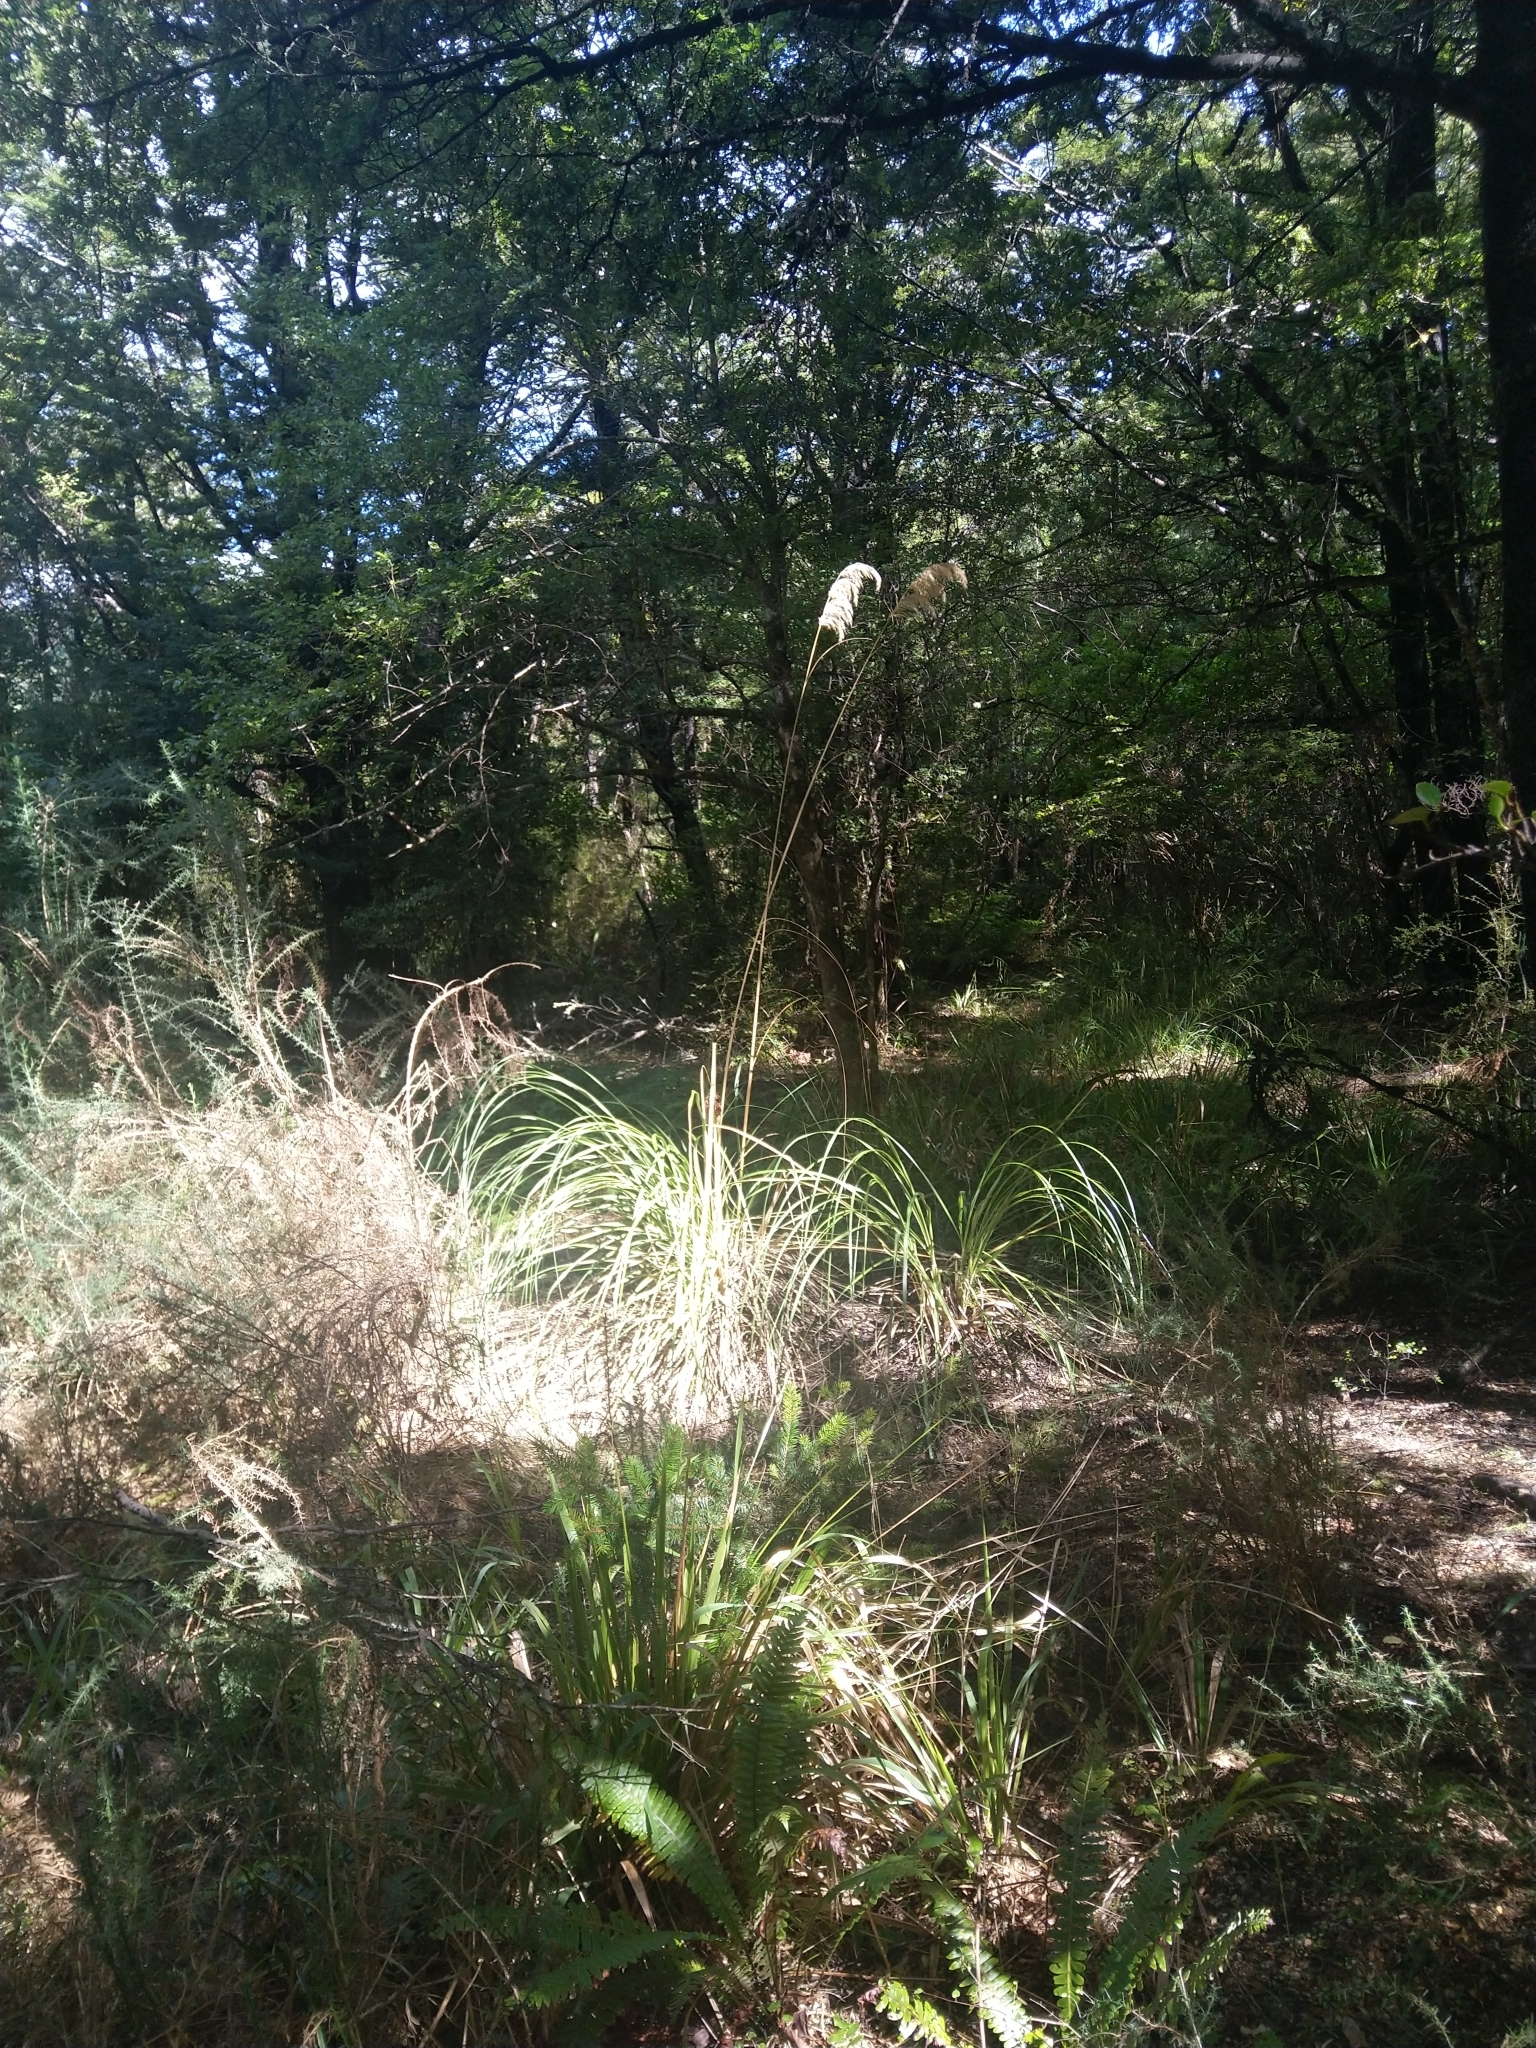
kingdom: Plantae
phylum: Tracheophyta
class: Liliopsida
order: Poales
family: Poaceae
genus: Austroderia
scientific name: Austroderia richardii
